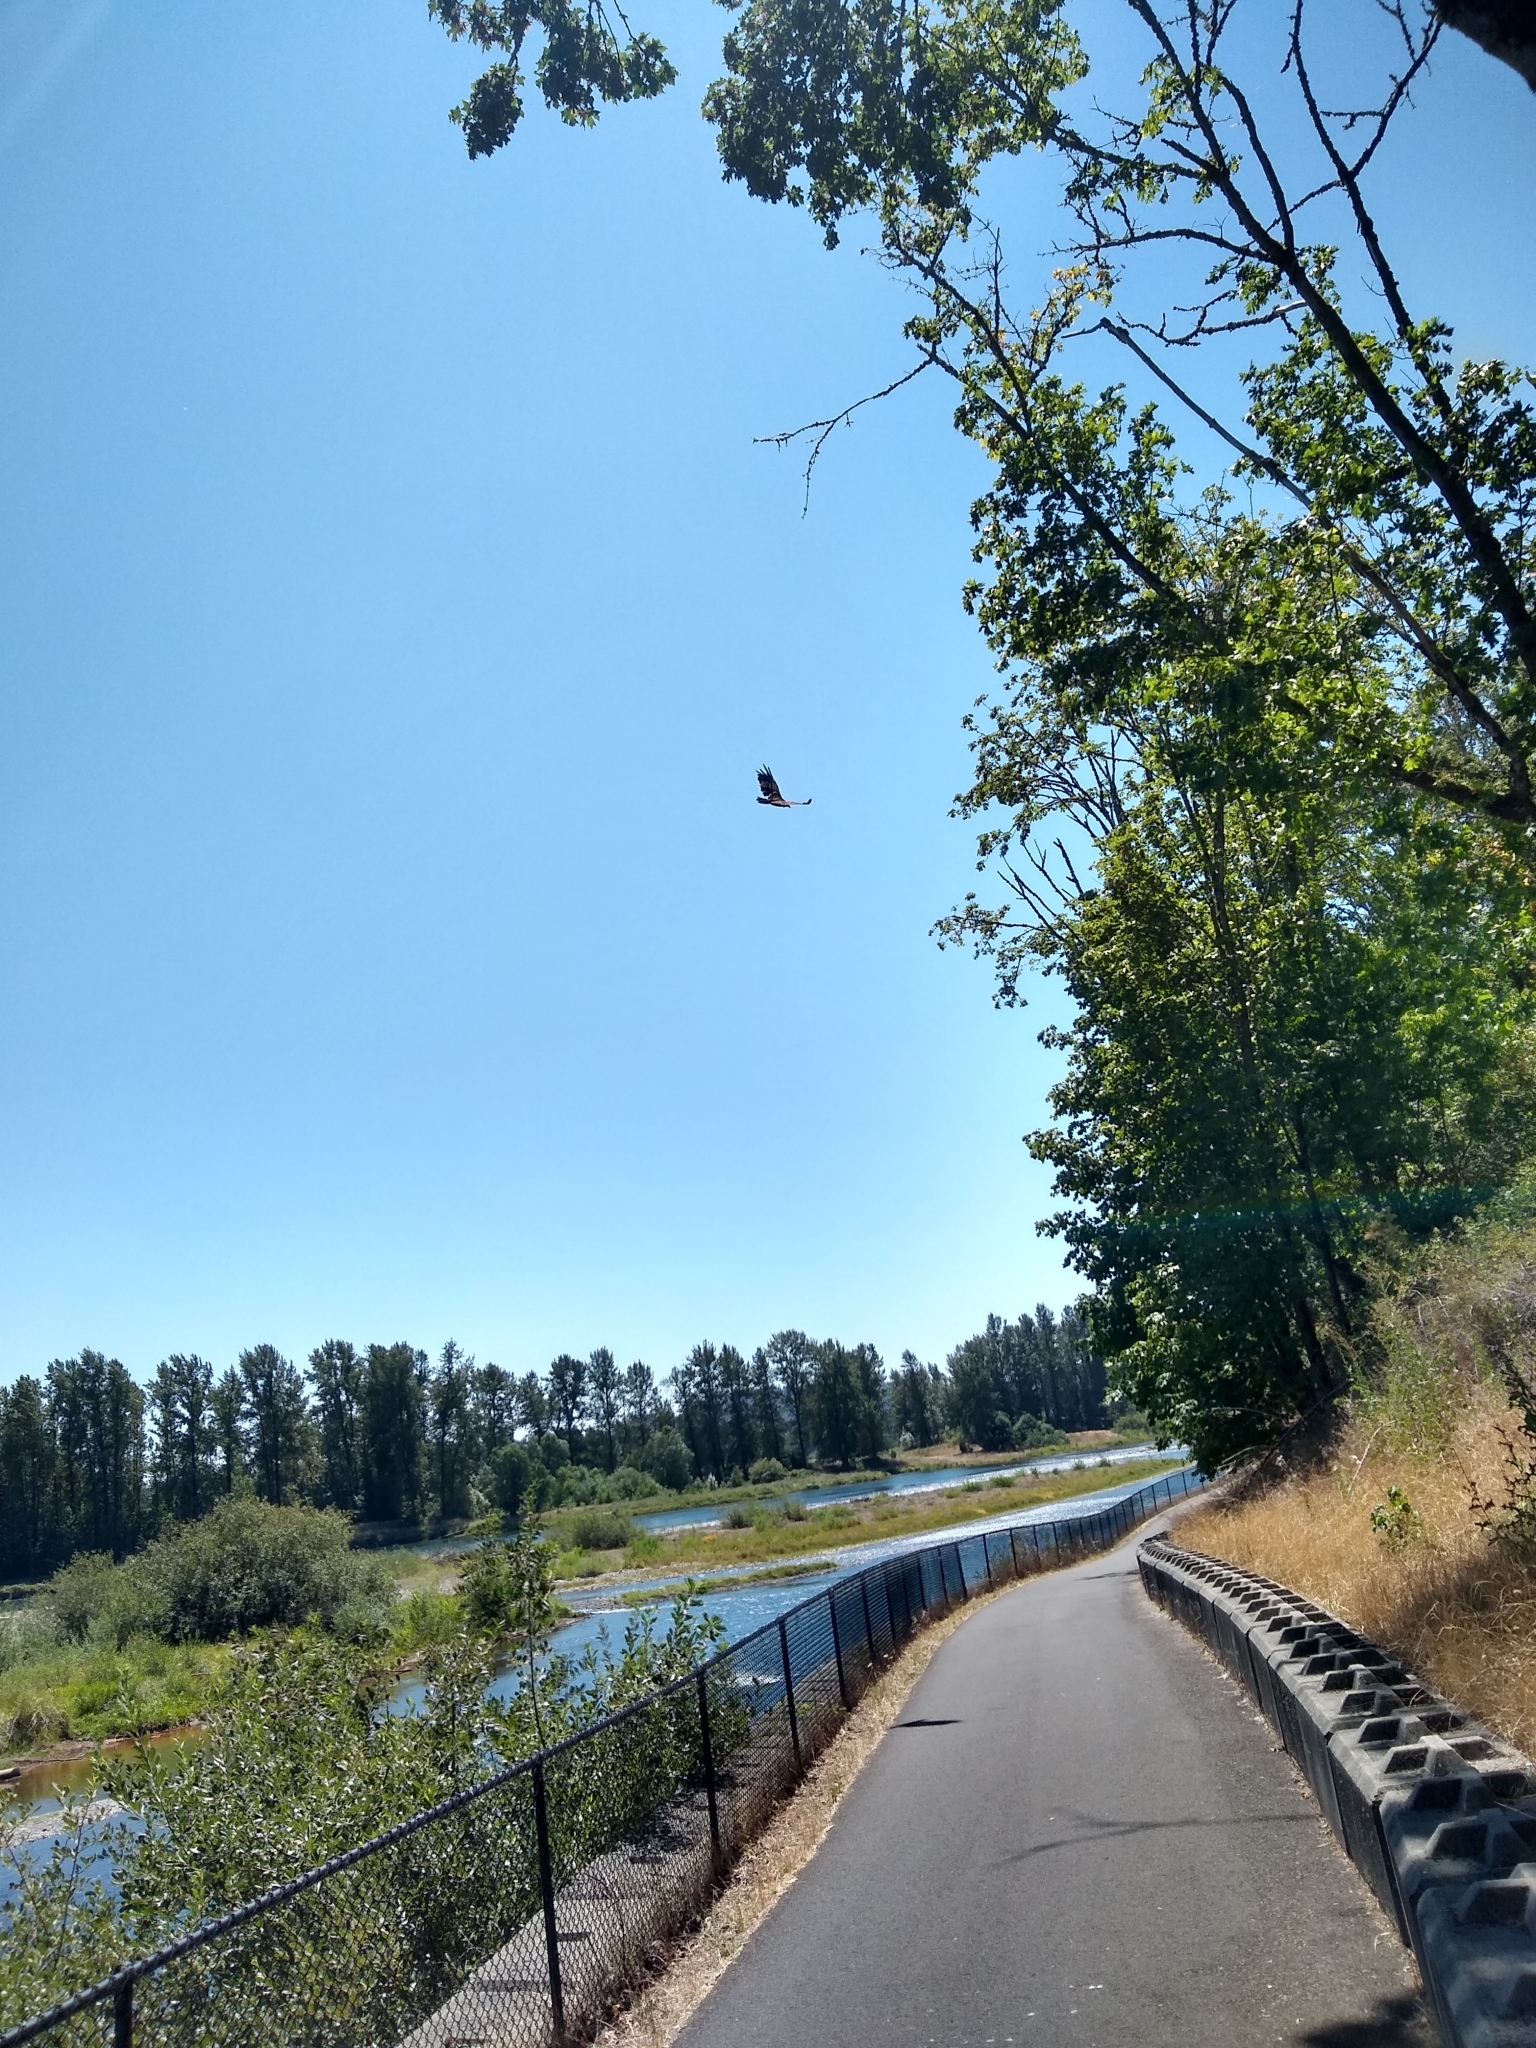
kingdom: Animalia
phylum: Chordata
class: Aves
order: Accipitriformes
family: Cathartidae
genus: Cathartes
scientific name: Cathartes aura
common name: Turkey vulture
